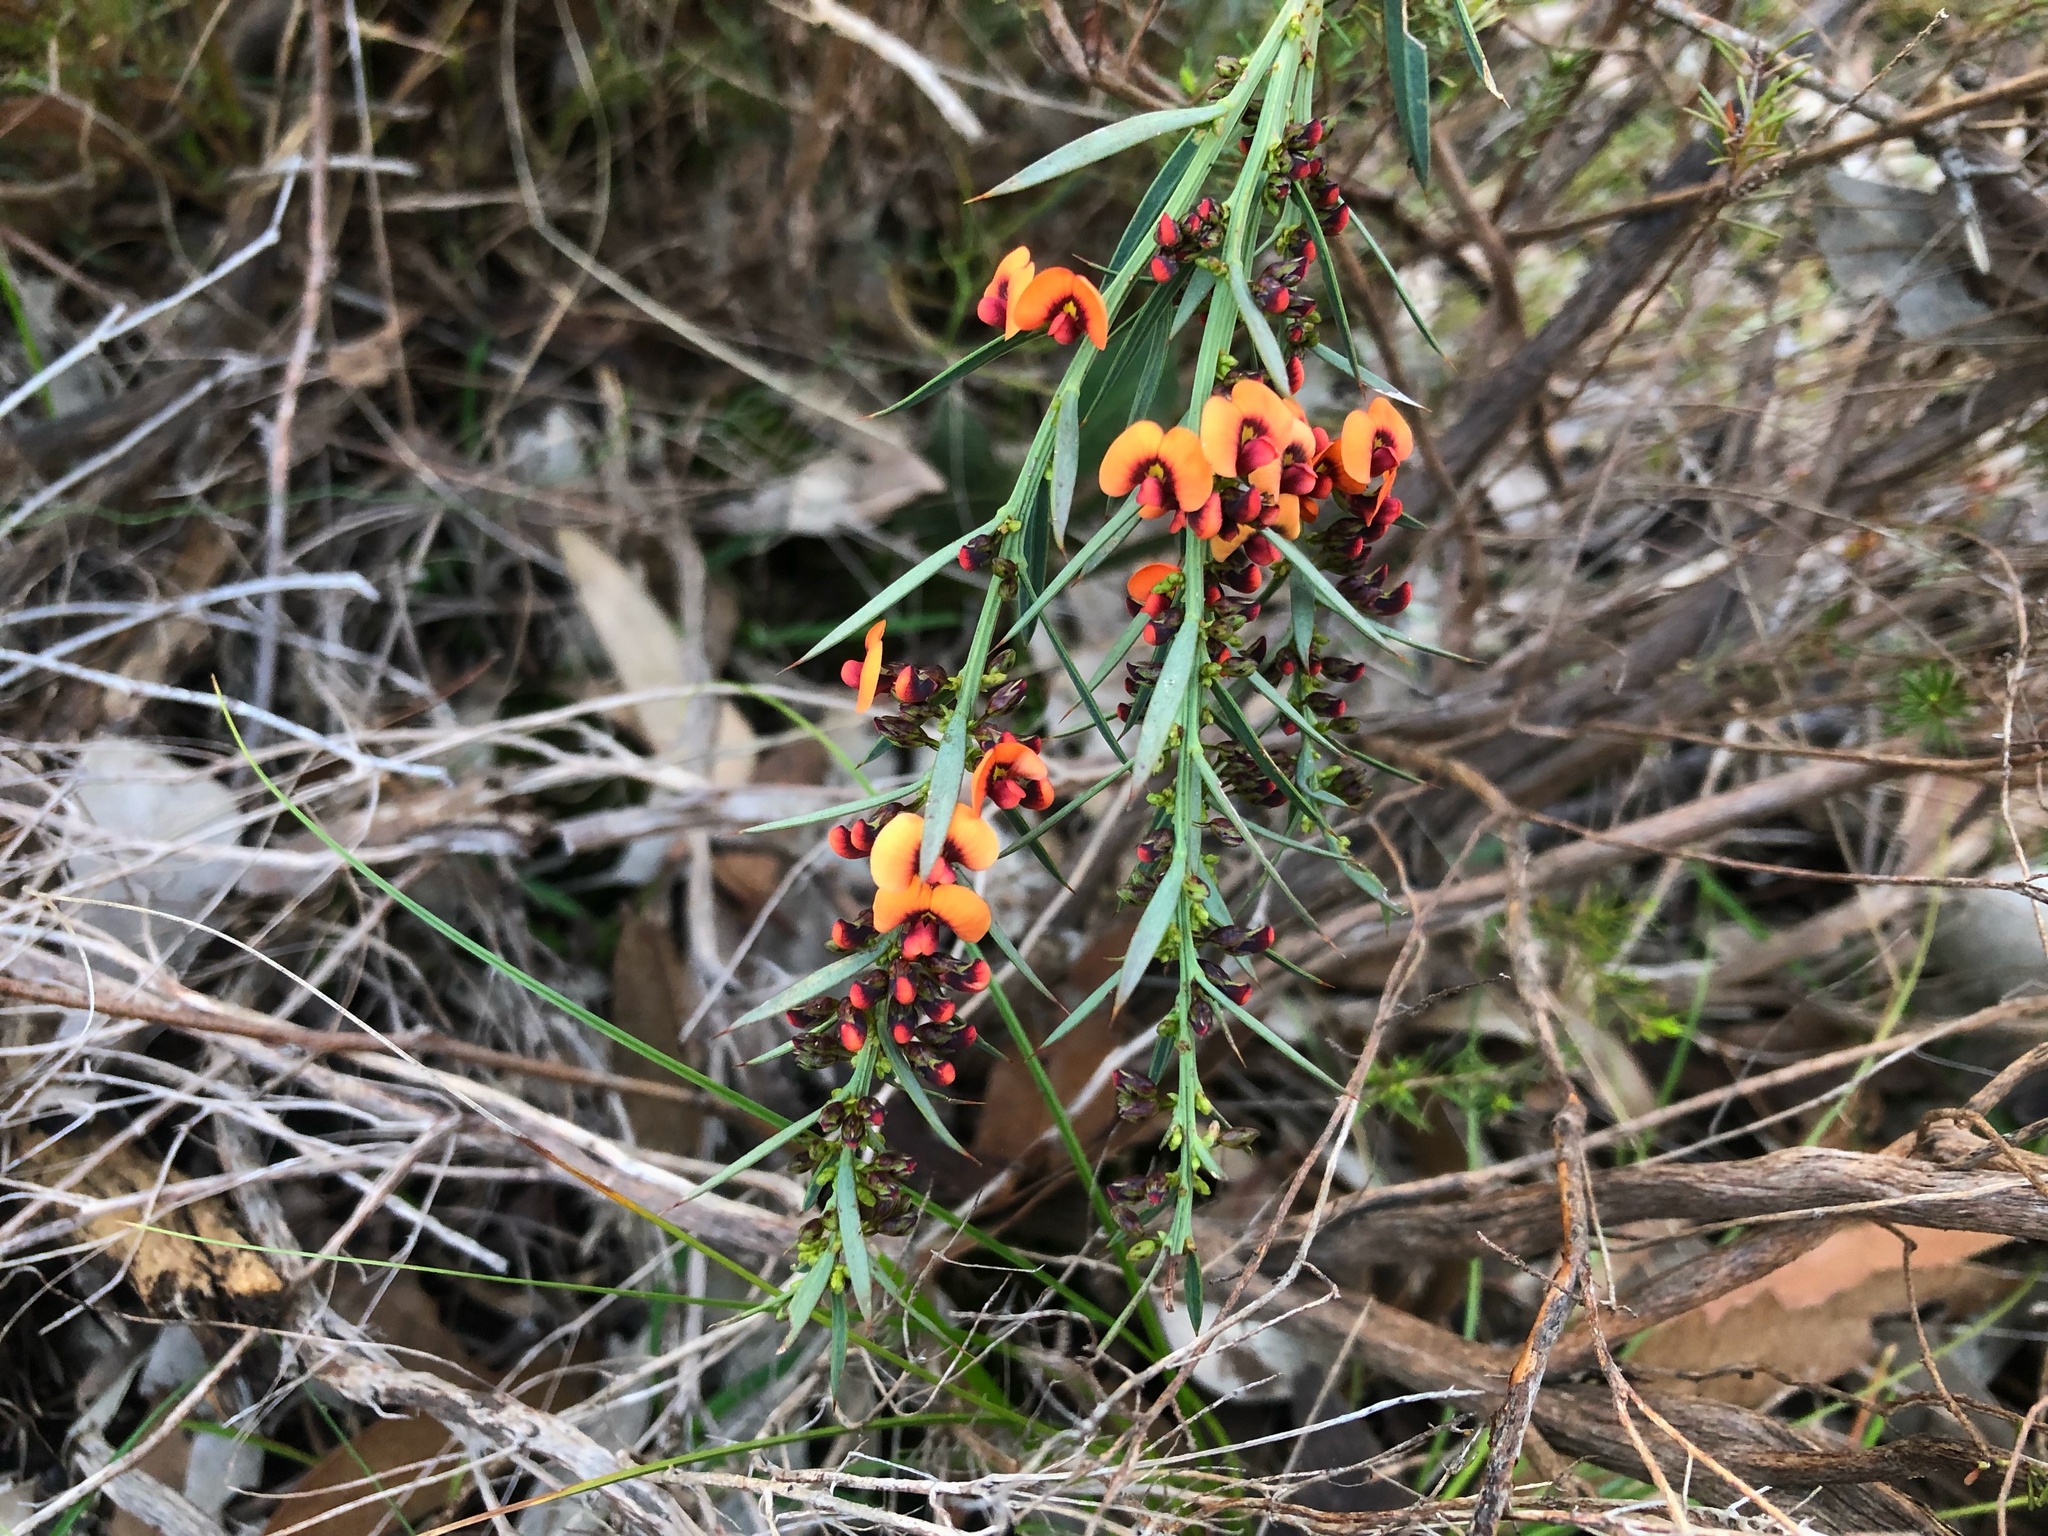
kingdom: Plantae
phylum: Tracheophyta
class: Magnoliopsida
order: Fabales
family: Fabaceae
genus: Daviesia
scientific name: Daviesia ulicifolia
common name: Gorse bitter-pea
